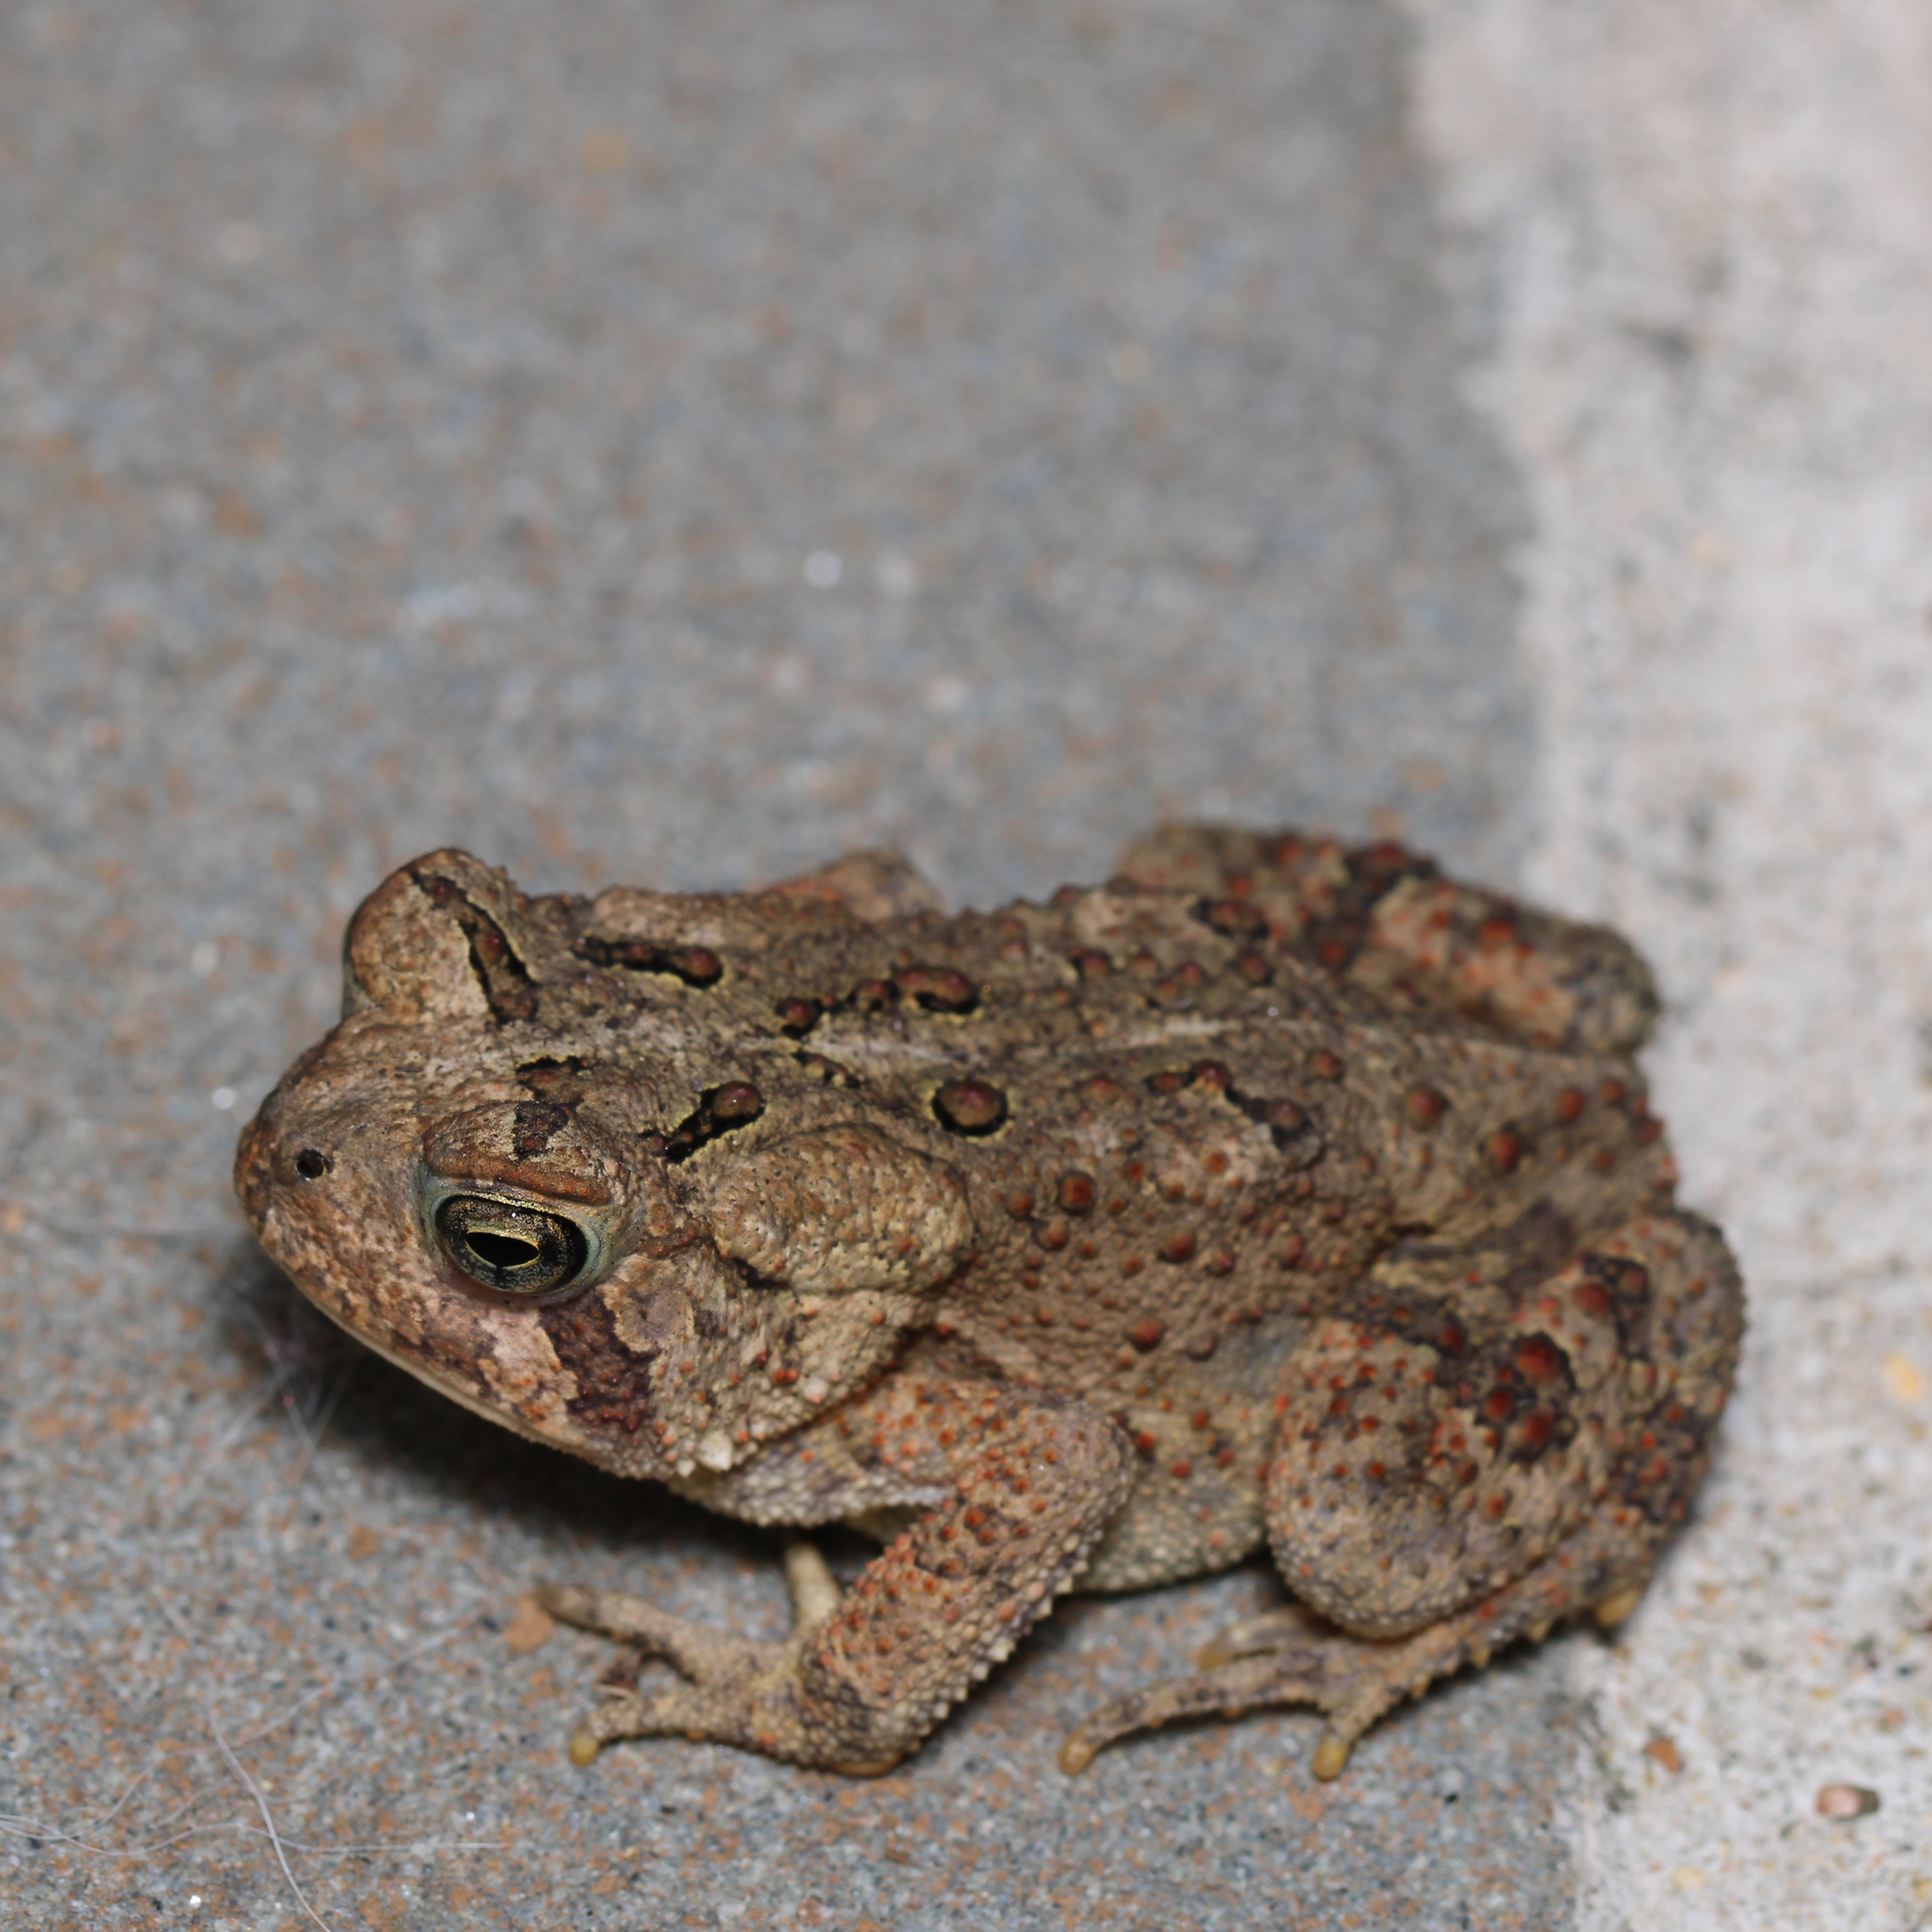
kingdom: Animalia
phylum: Chordata
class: Amphibia
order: Anura
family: Bufonidae
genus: Anaxyrus
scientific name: Anaxyrus americanus
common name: American toad
